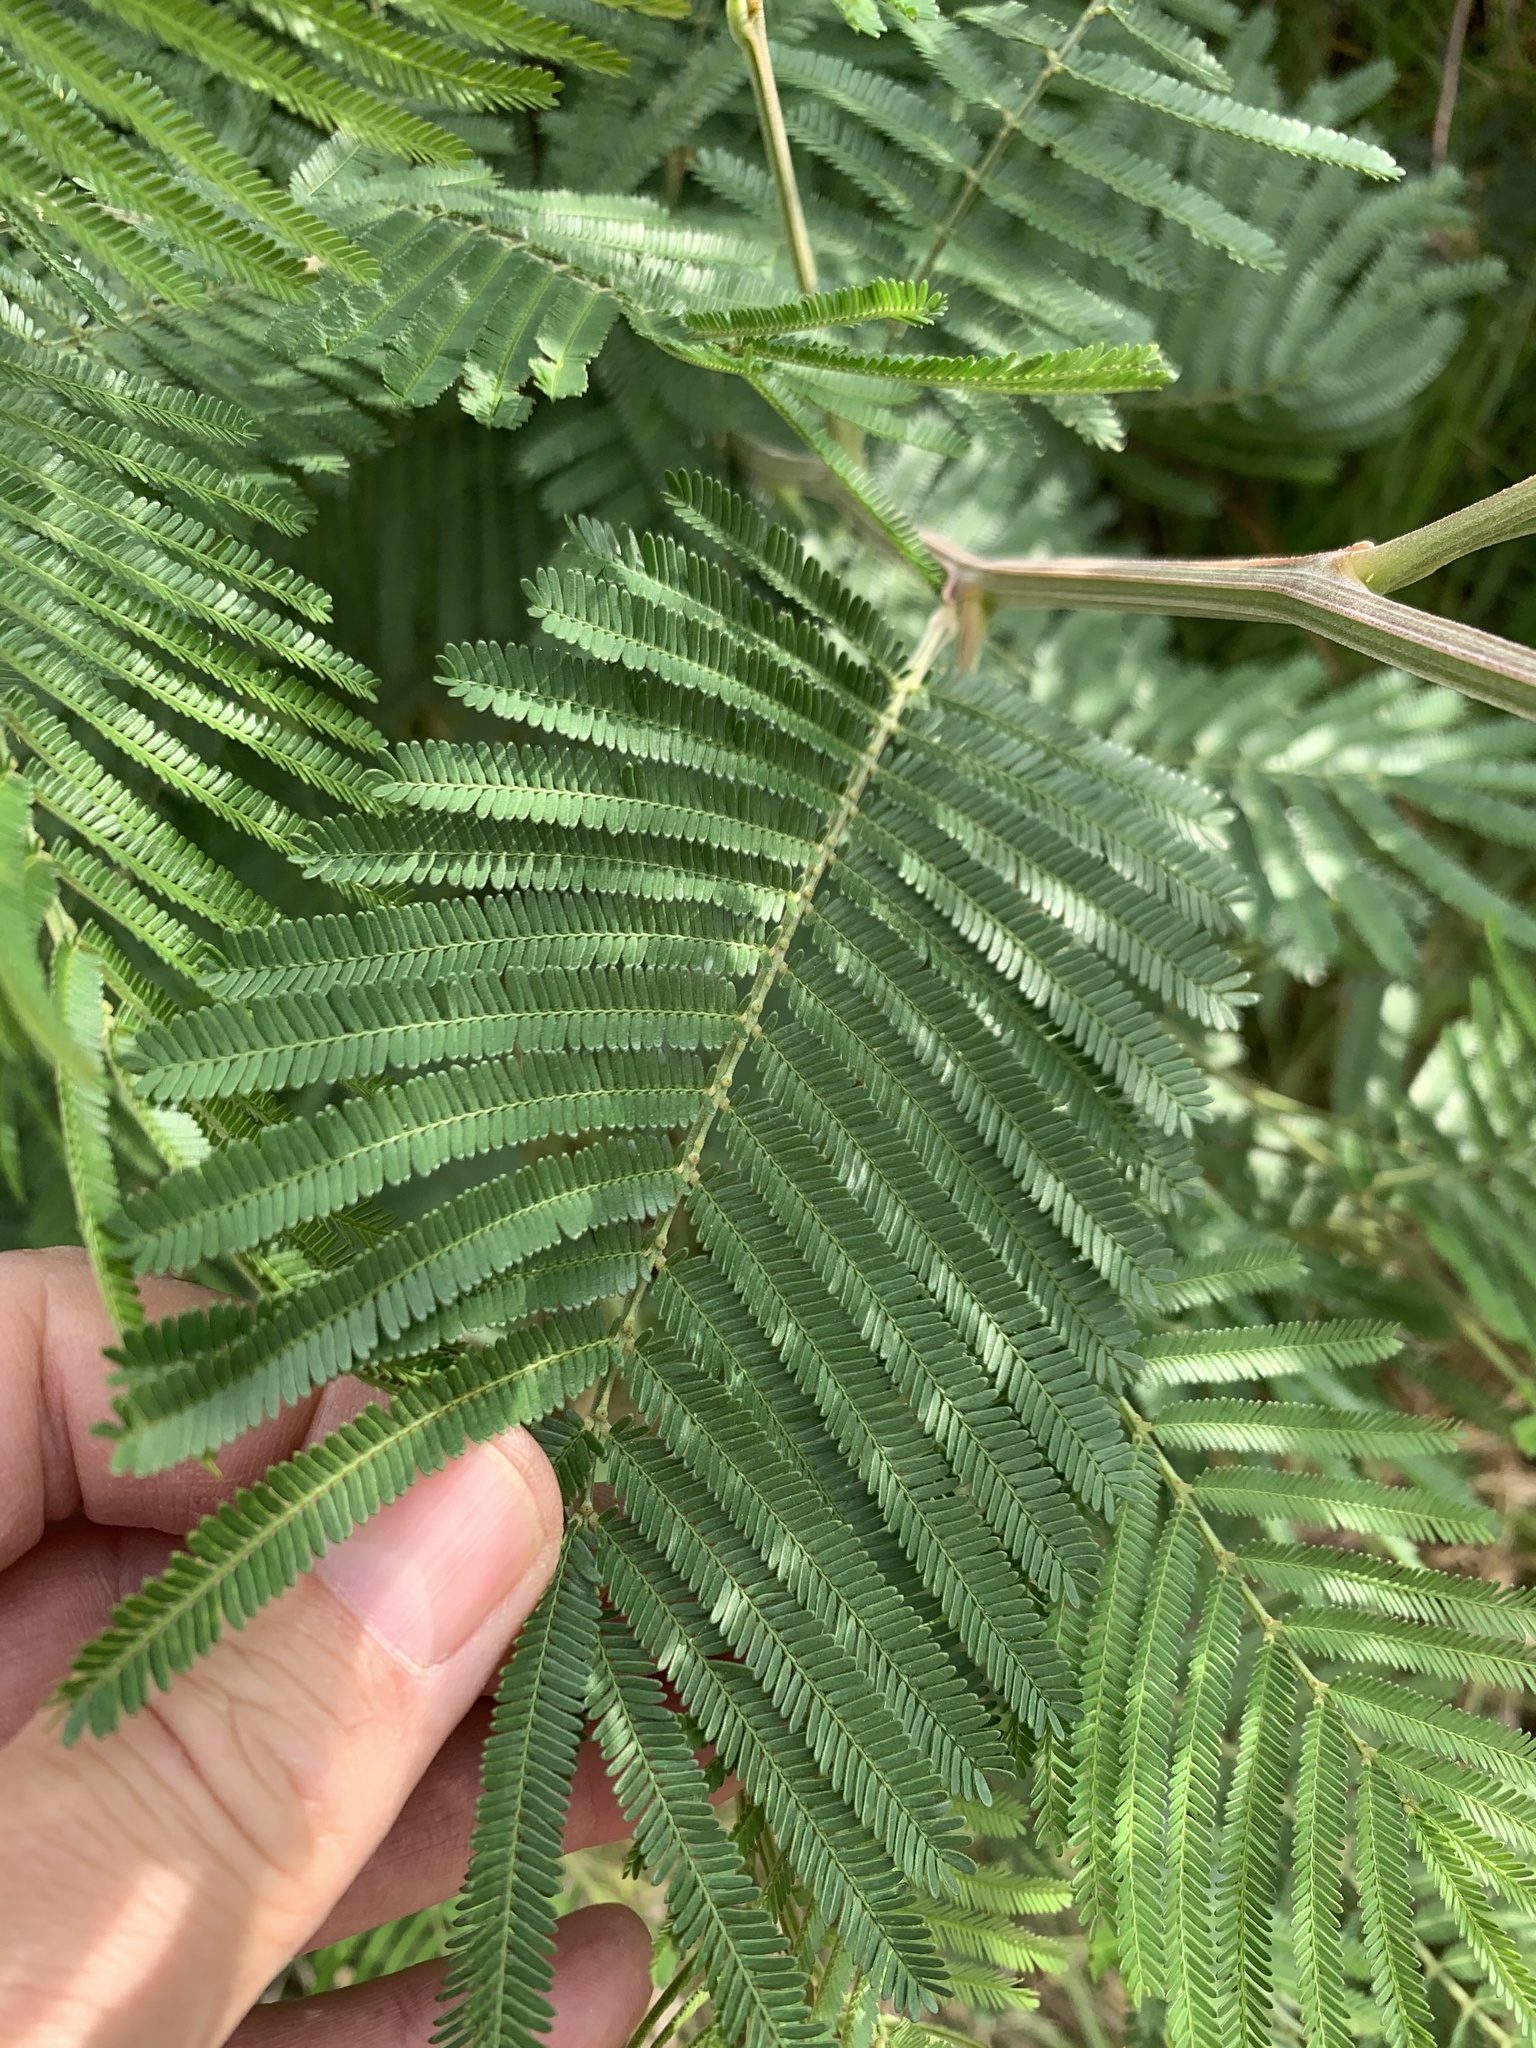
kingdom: Plantae
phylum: Tracheophyta
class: Magnoliopsida
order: Fabales
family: Fabaceae
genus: Acacia
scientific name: Acacia mearnsii
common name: Black wattle
